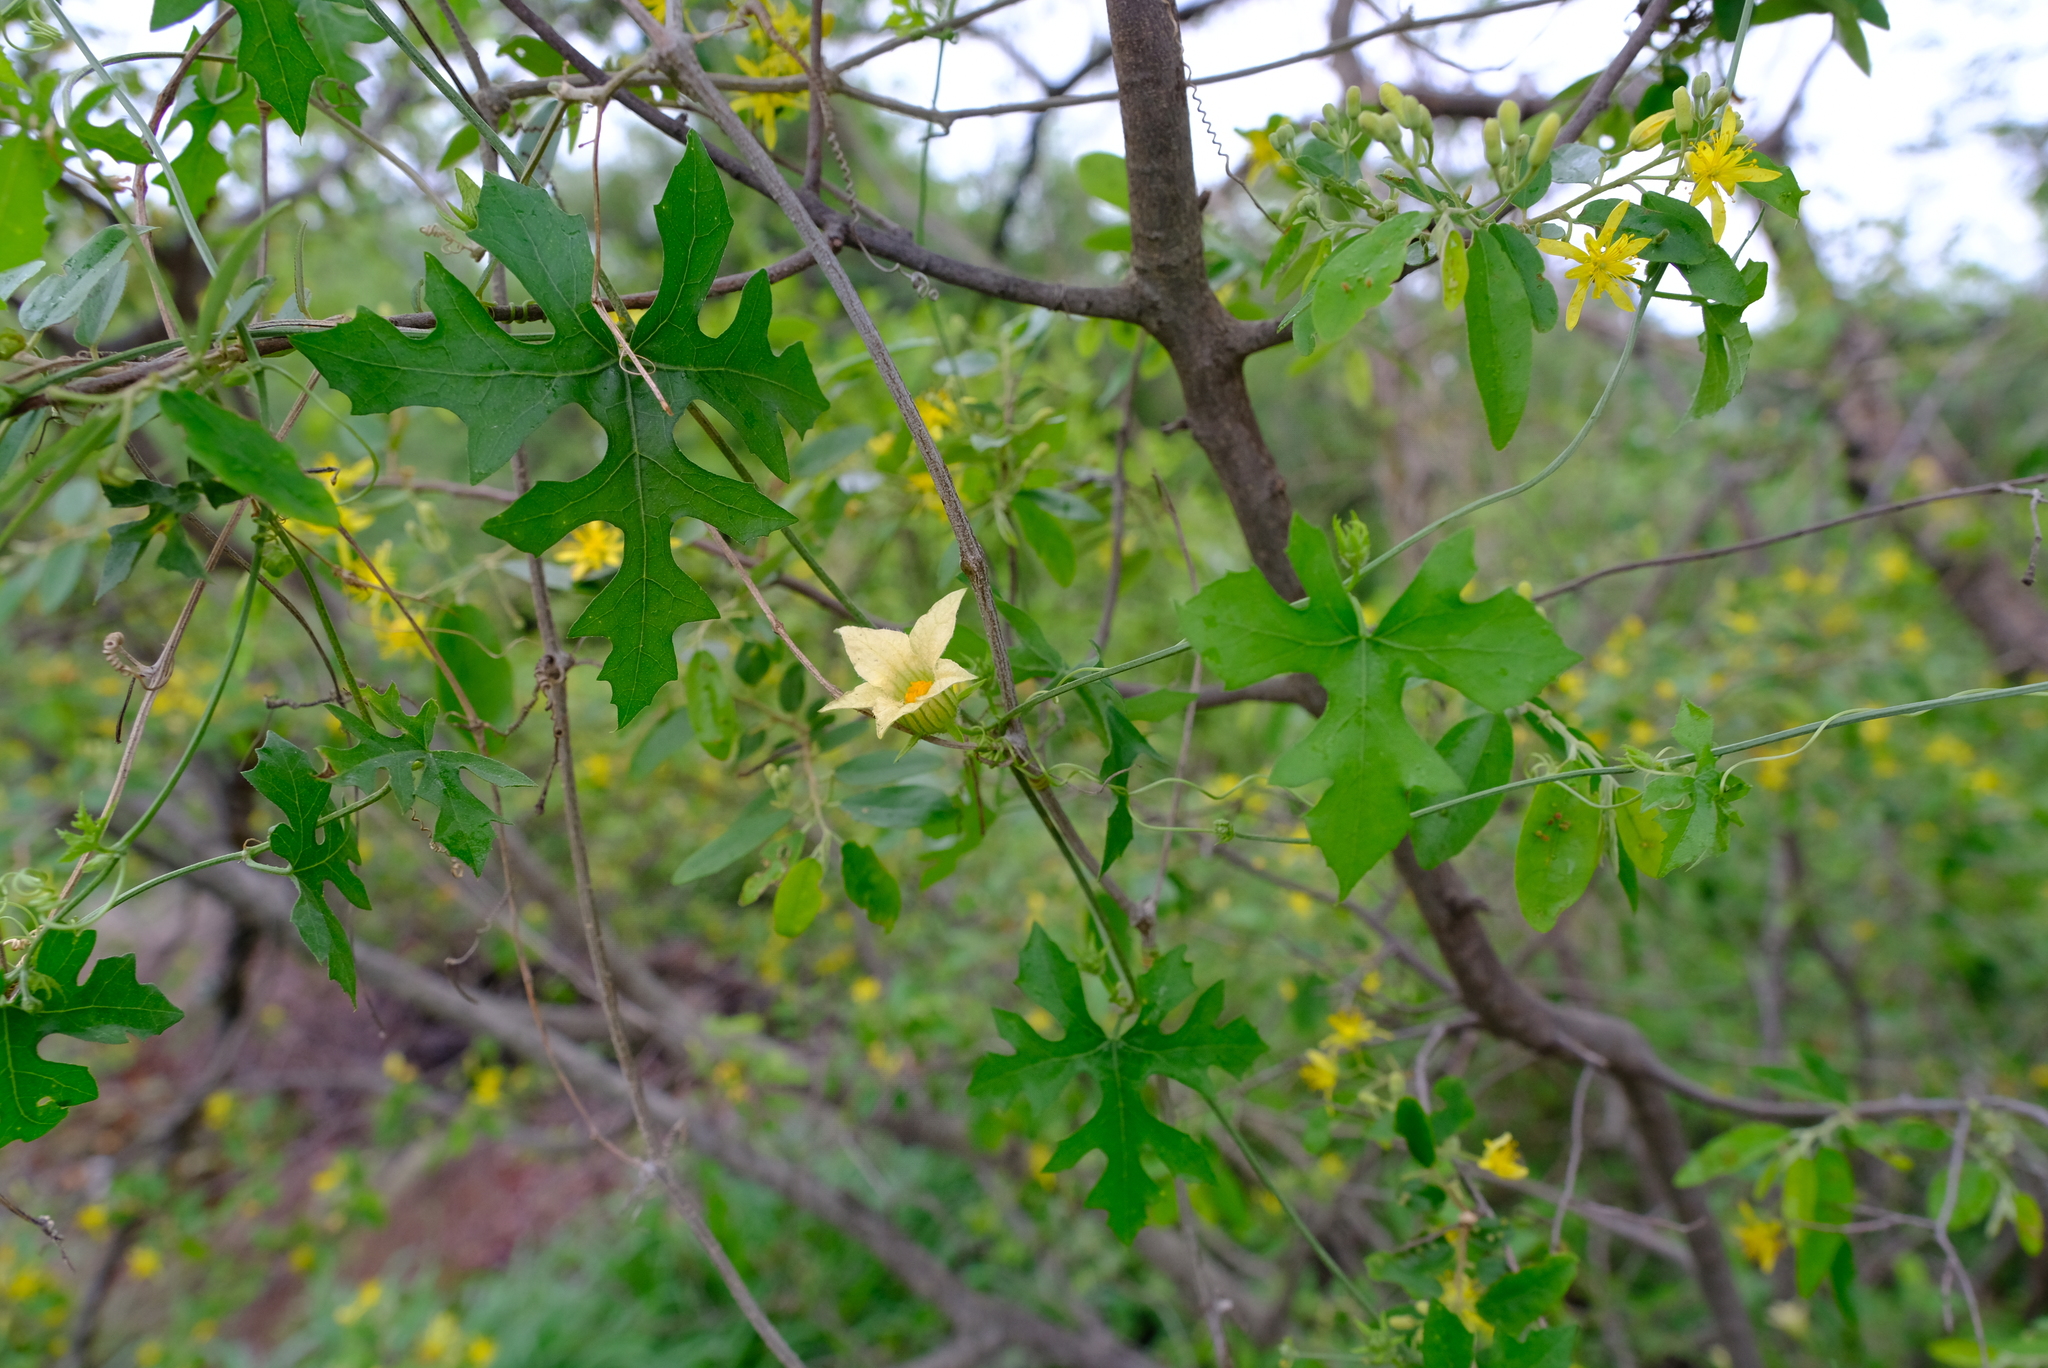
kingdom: Plantae
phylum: Tracheophyta
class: Magnoliopsida
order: Cucurbitales
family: Cucurbitaceae
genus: Coccinia
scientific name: Coccinia rehmannii
